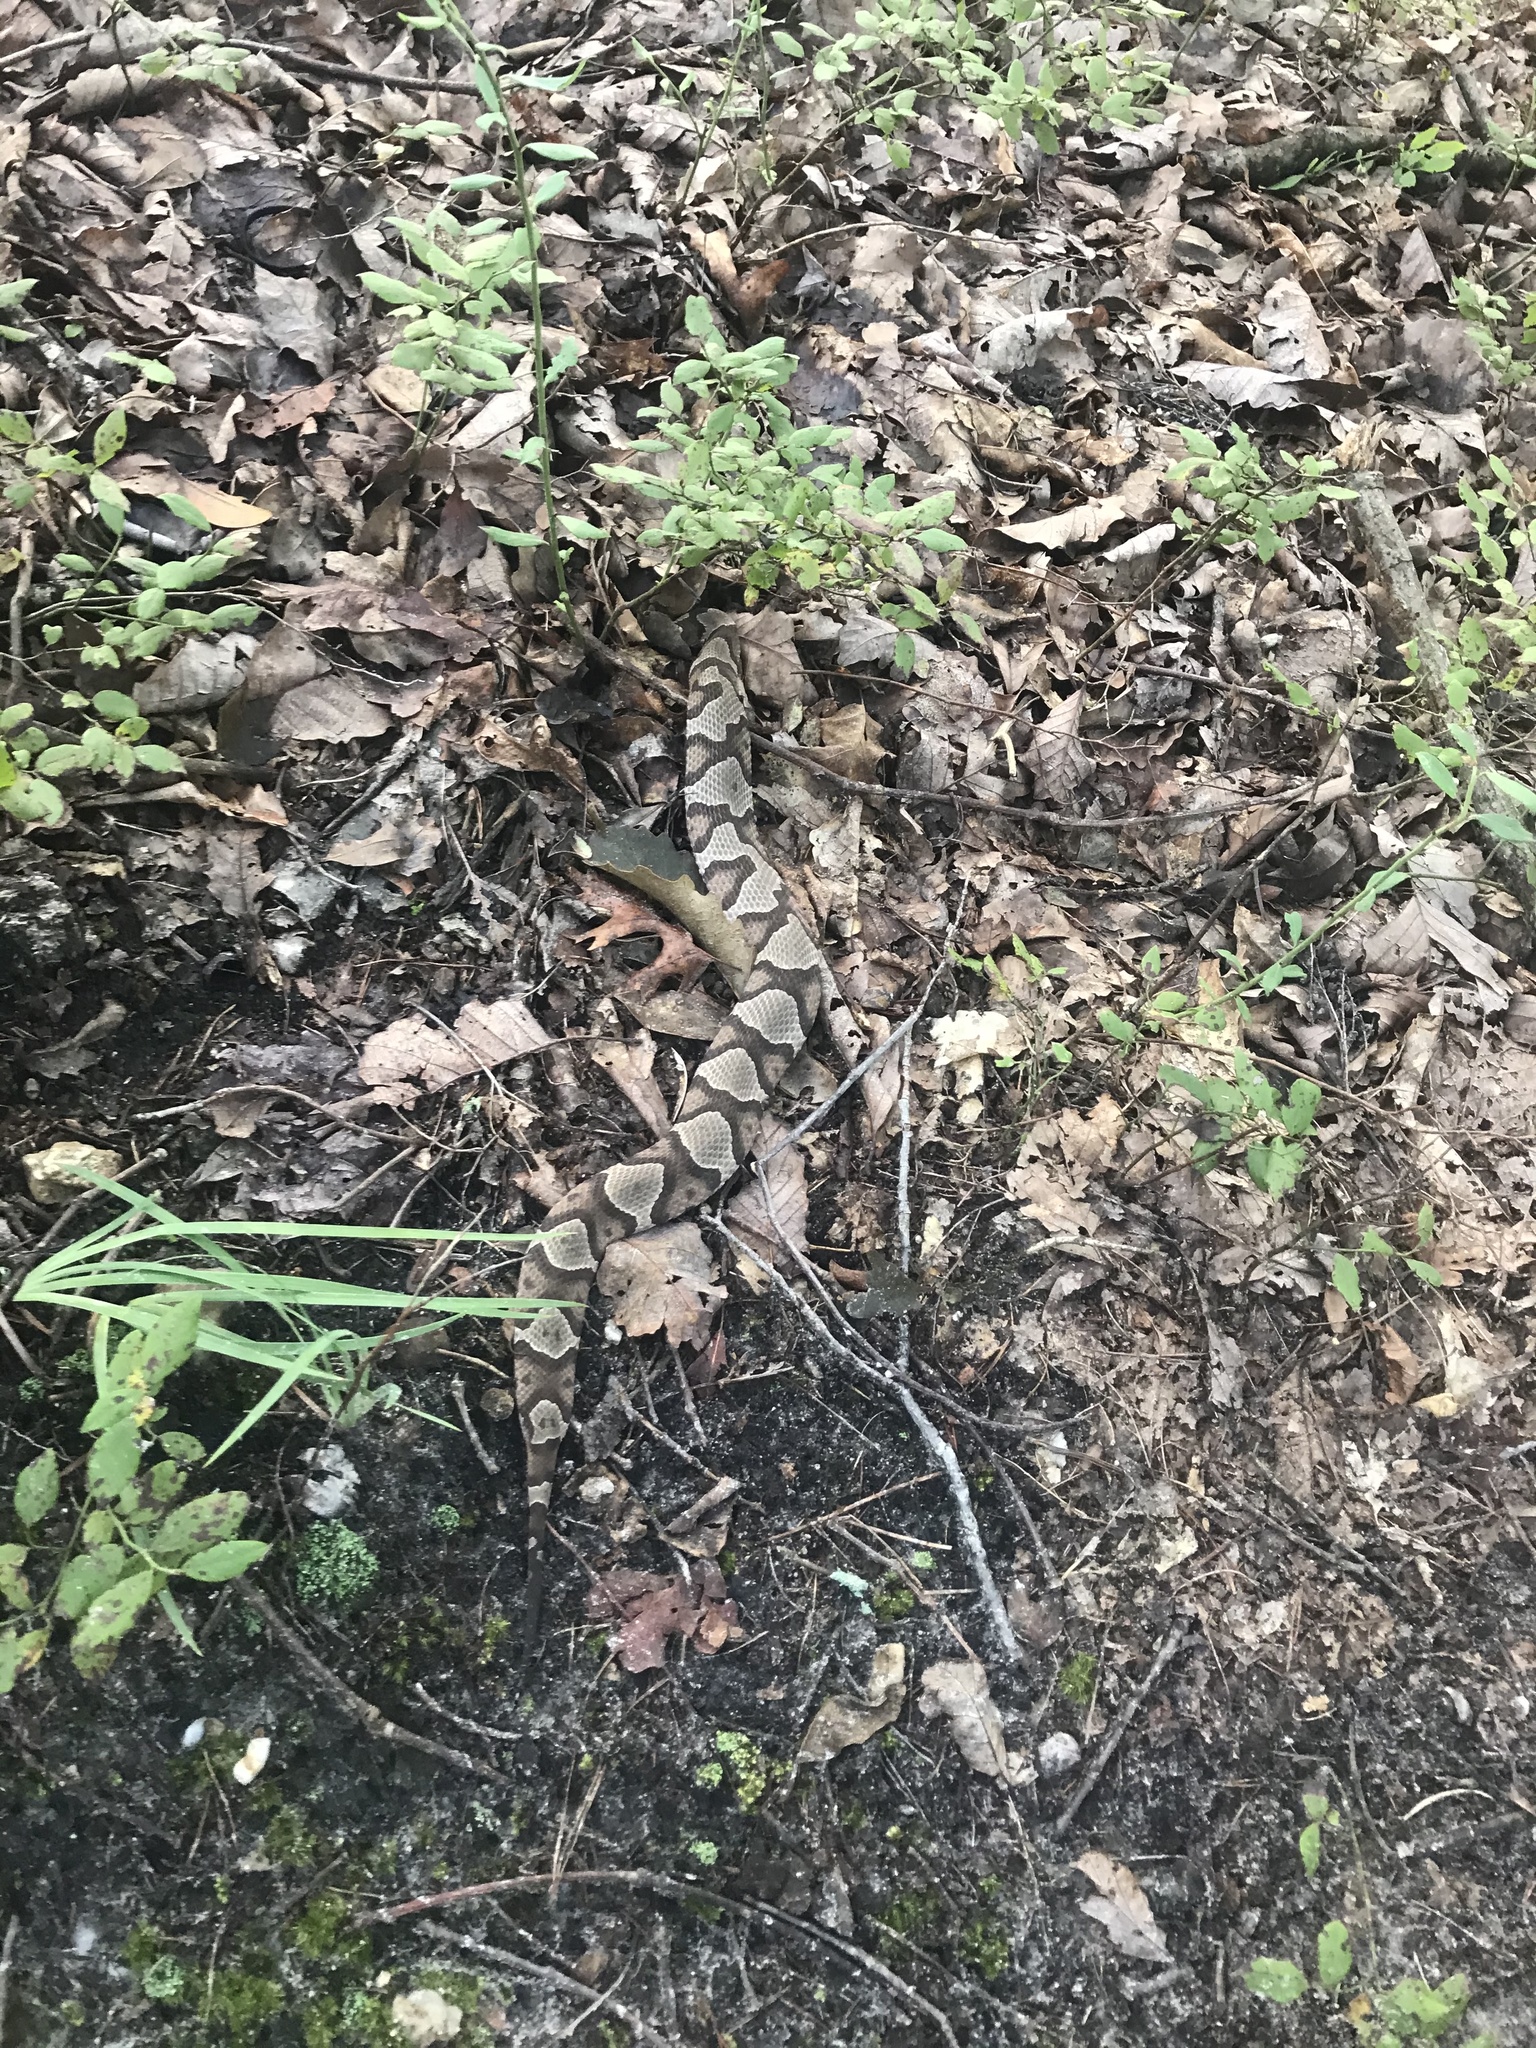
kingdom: Animalia
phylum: Chordata
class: Squamata
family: Viperidae
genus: Agkistrodon
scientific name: Agkistrodon contortrix
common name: Northern copperhead
